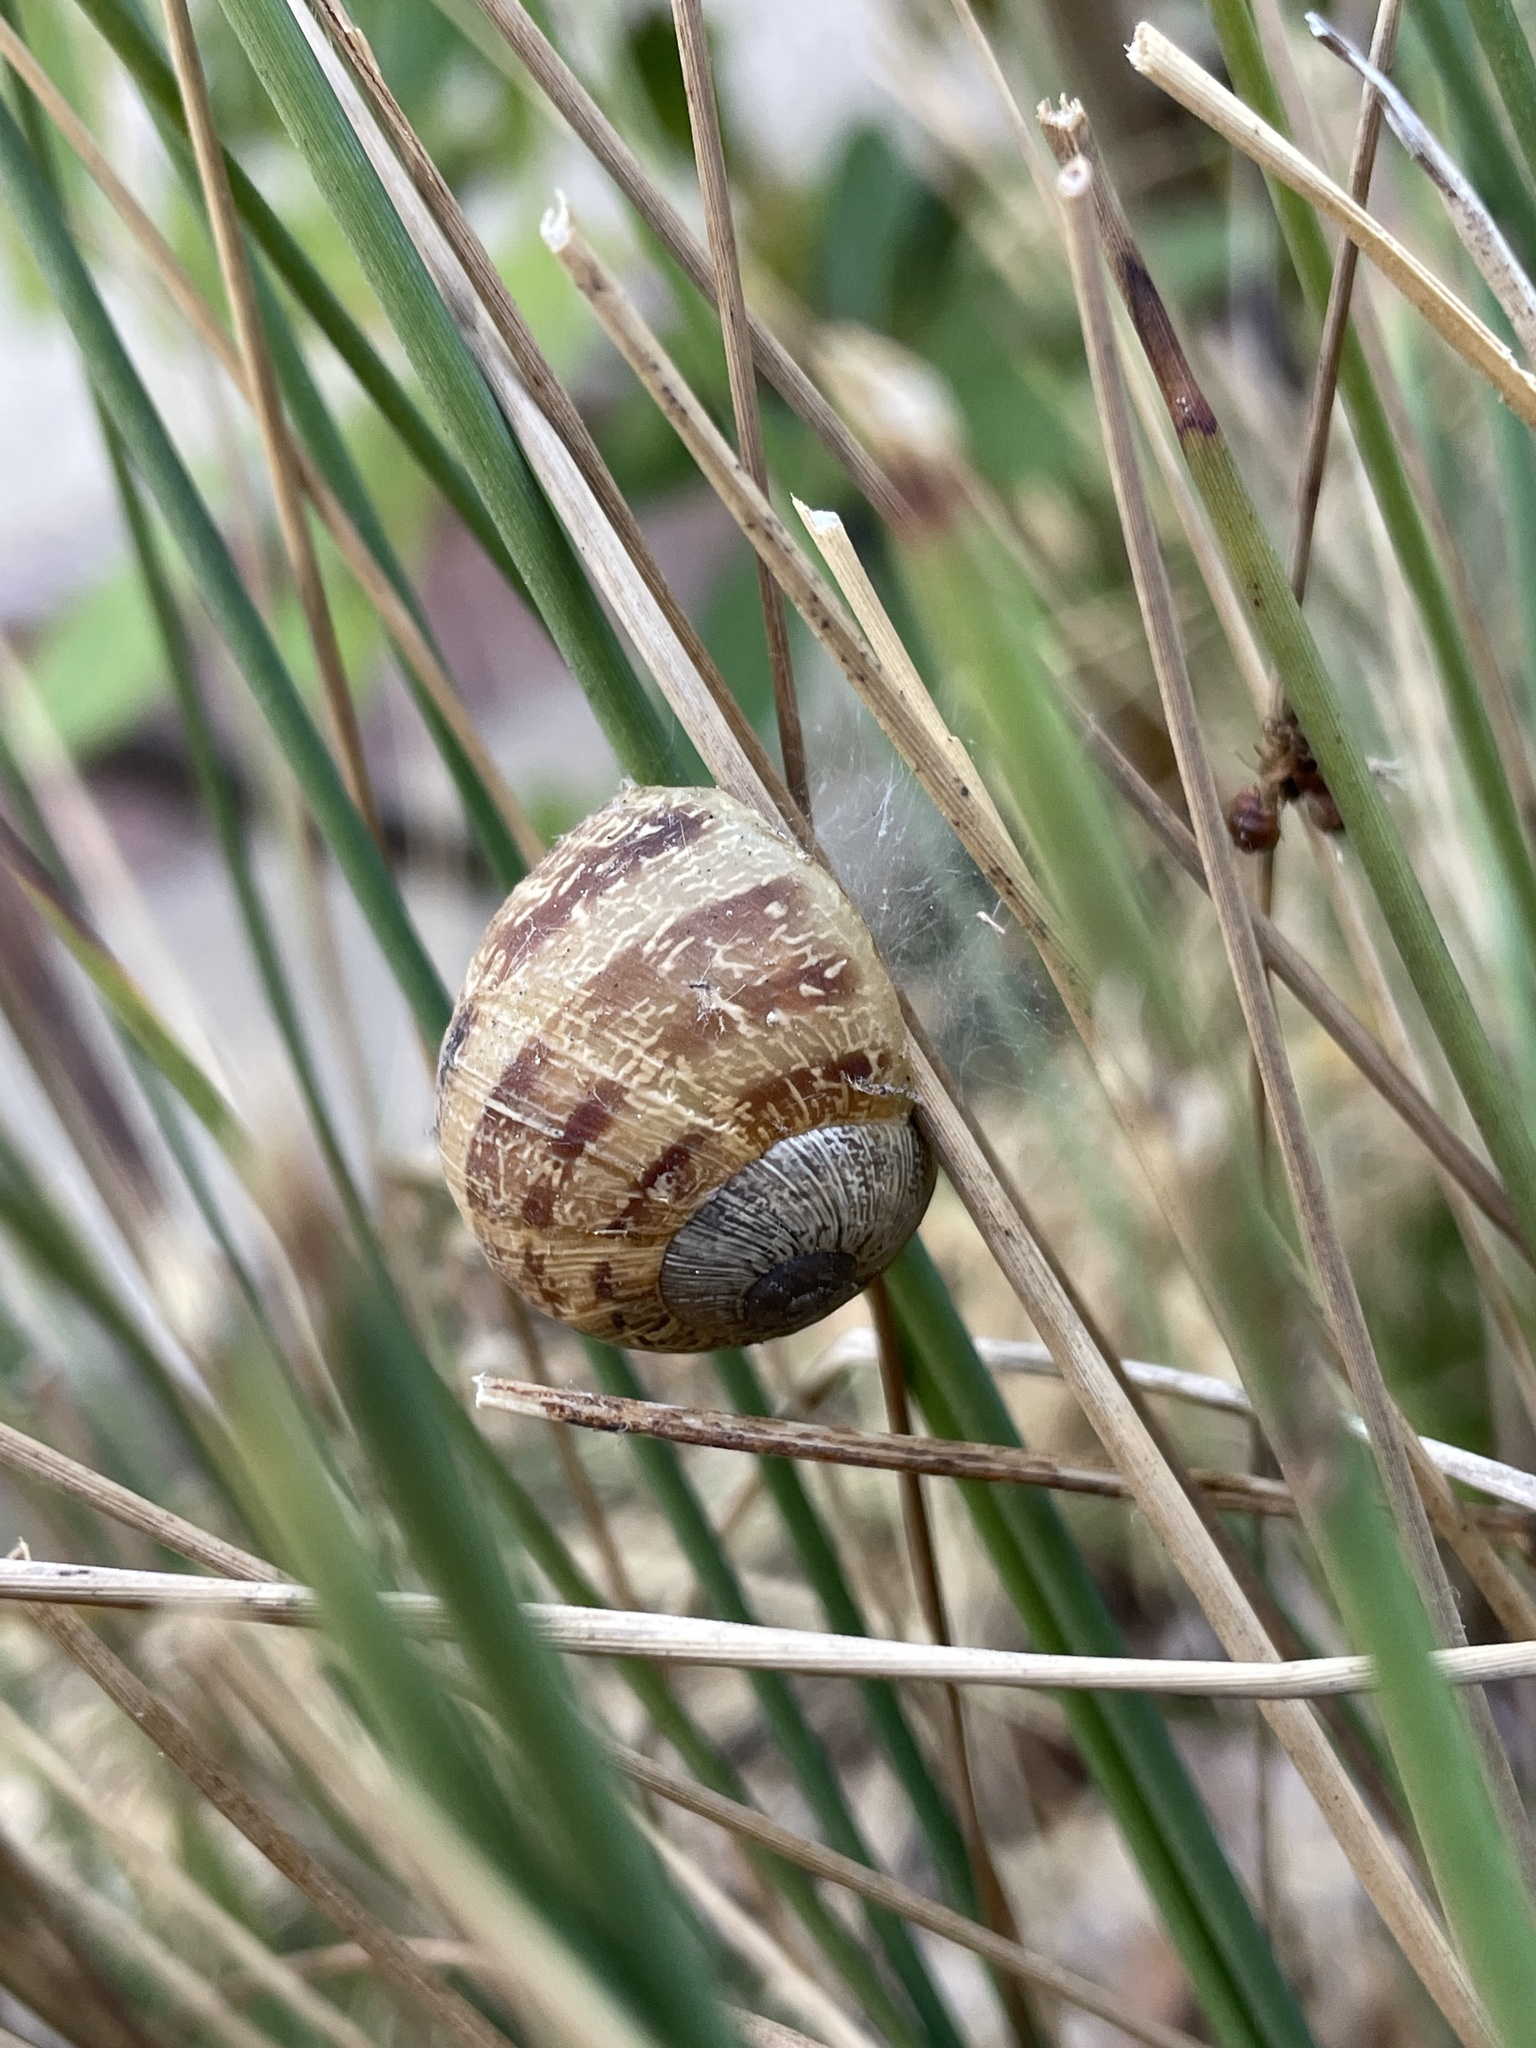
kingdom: Animalia
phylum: Mollusca
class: Gastropoda
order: Stylommatophora
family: Helicidae
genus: Cornu
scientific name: Cornu aspersum
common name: Brown garden snail
